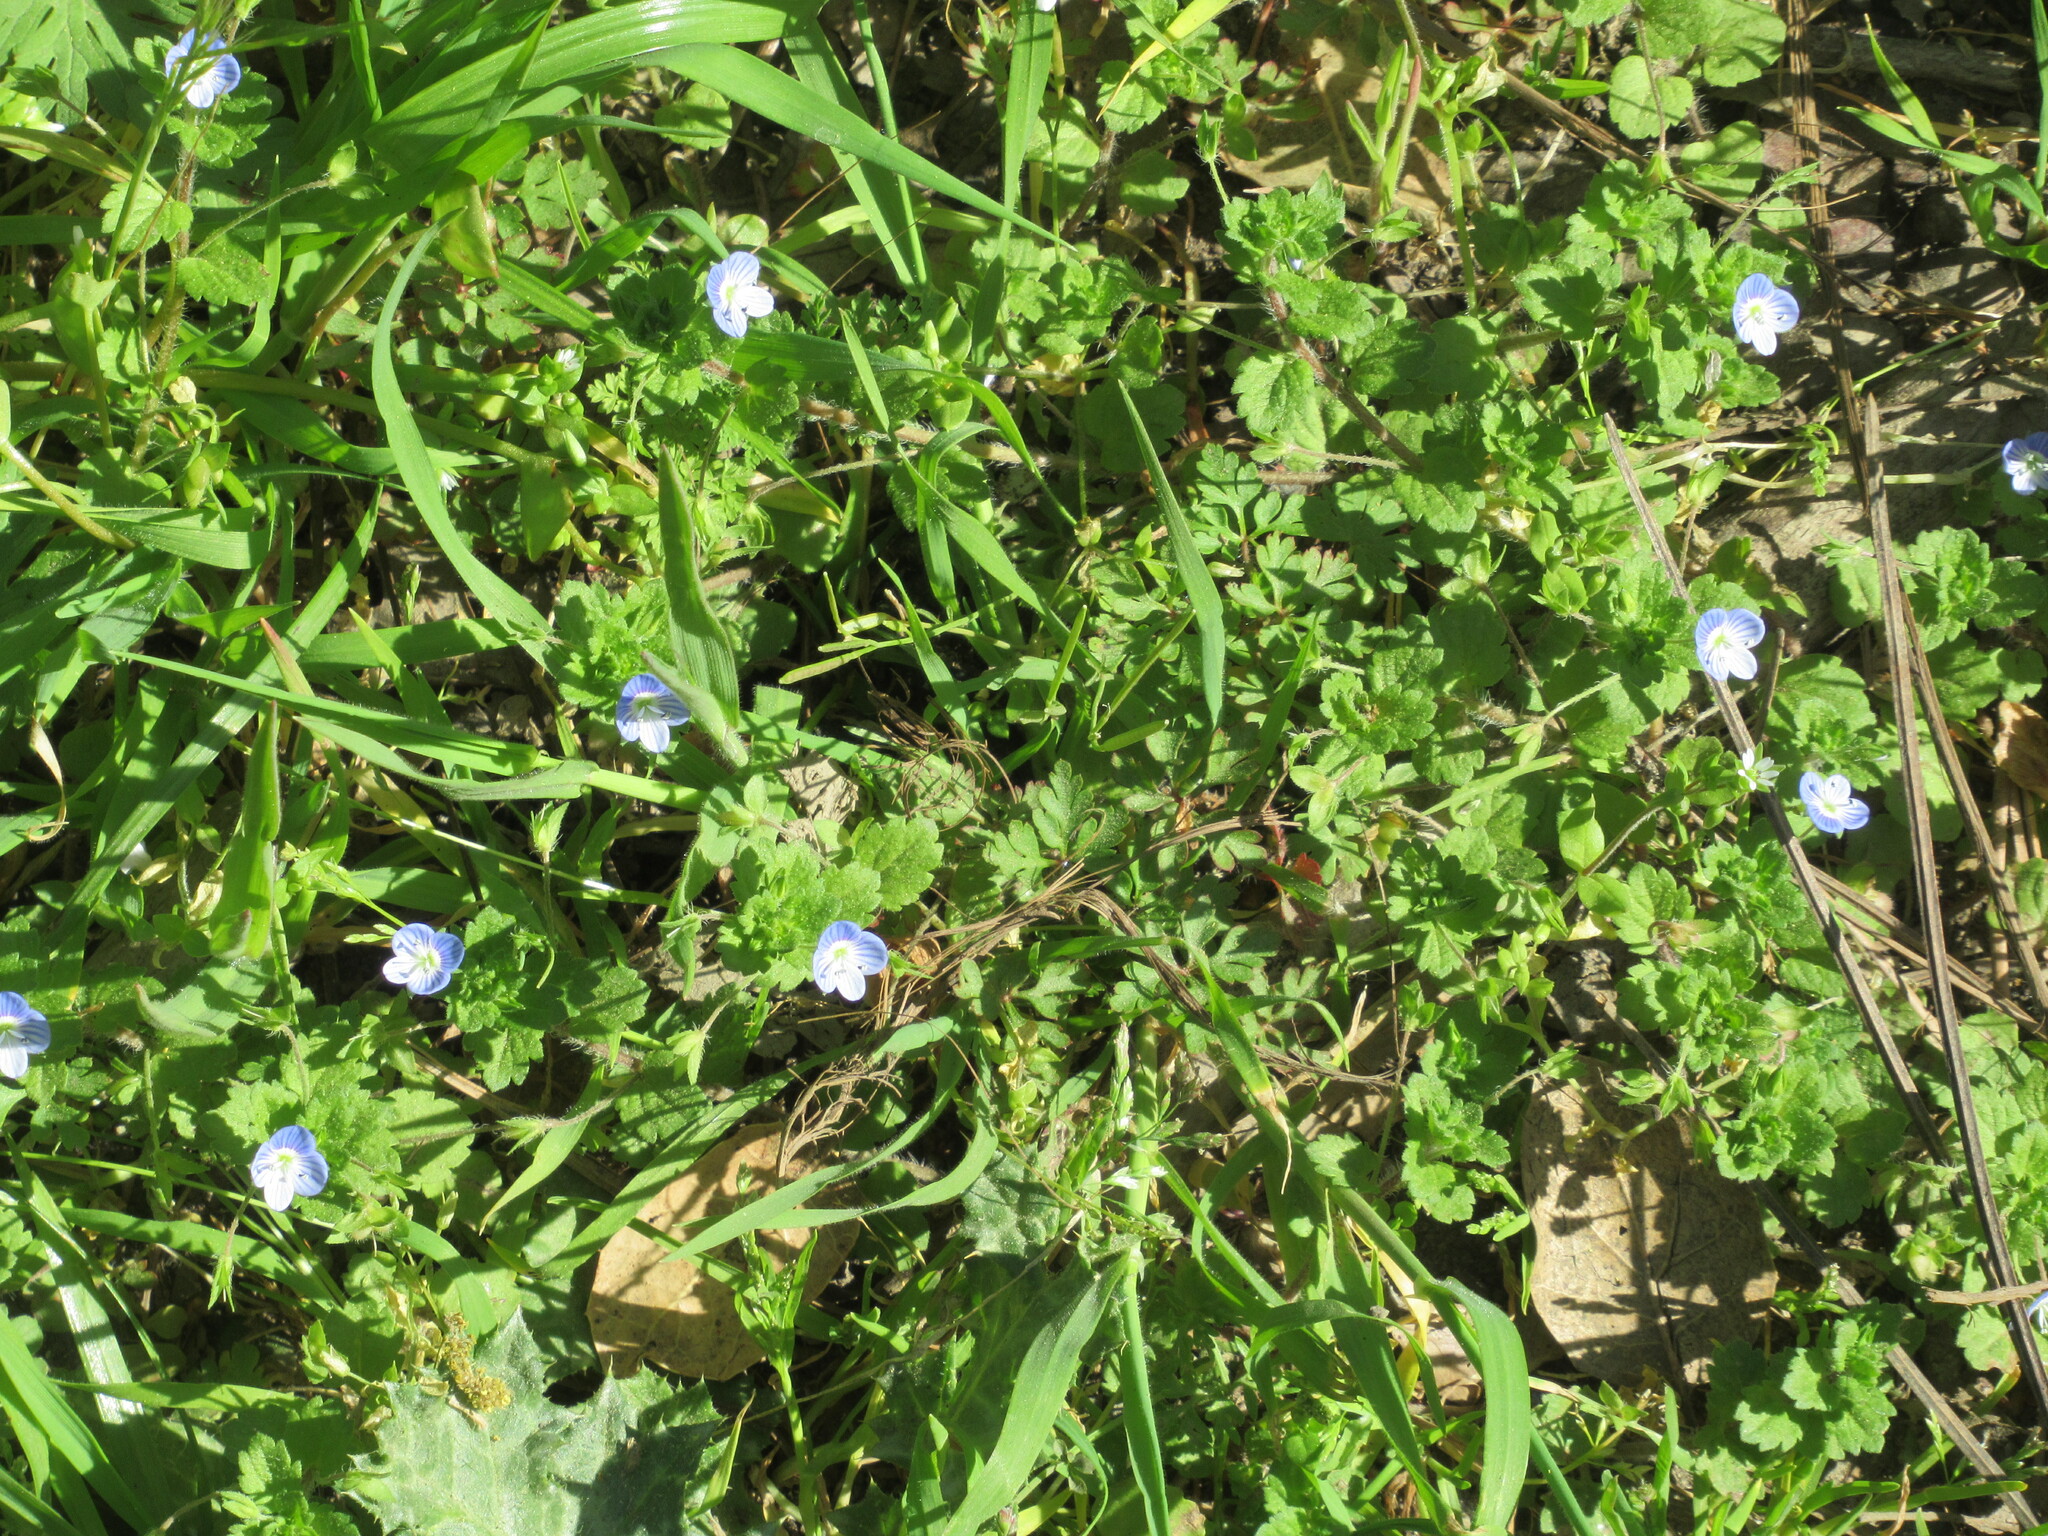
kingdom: Plantae
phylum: Tracheophyta
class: Magnoliopsida
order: Lamiales
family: Plantaginaceae
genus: Veronica
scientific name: Veronica persica
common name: Common field-speedwell
